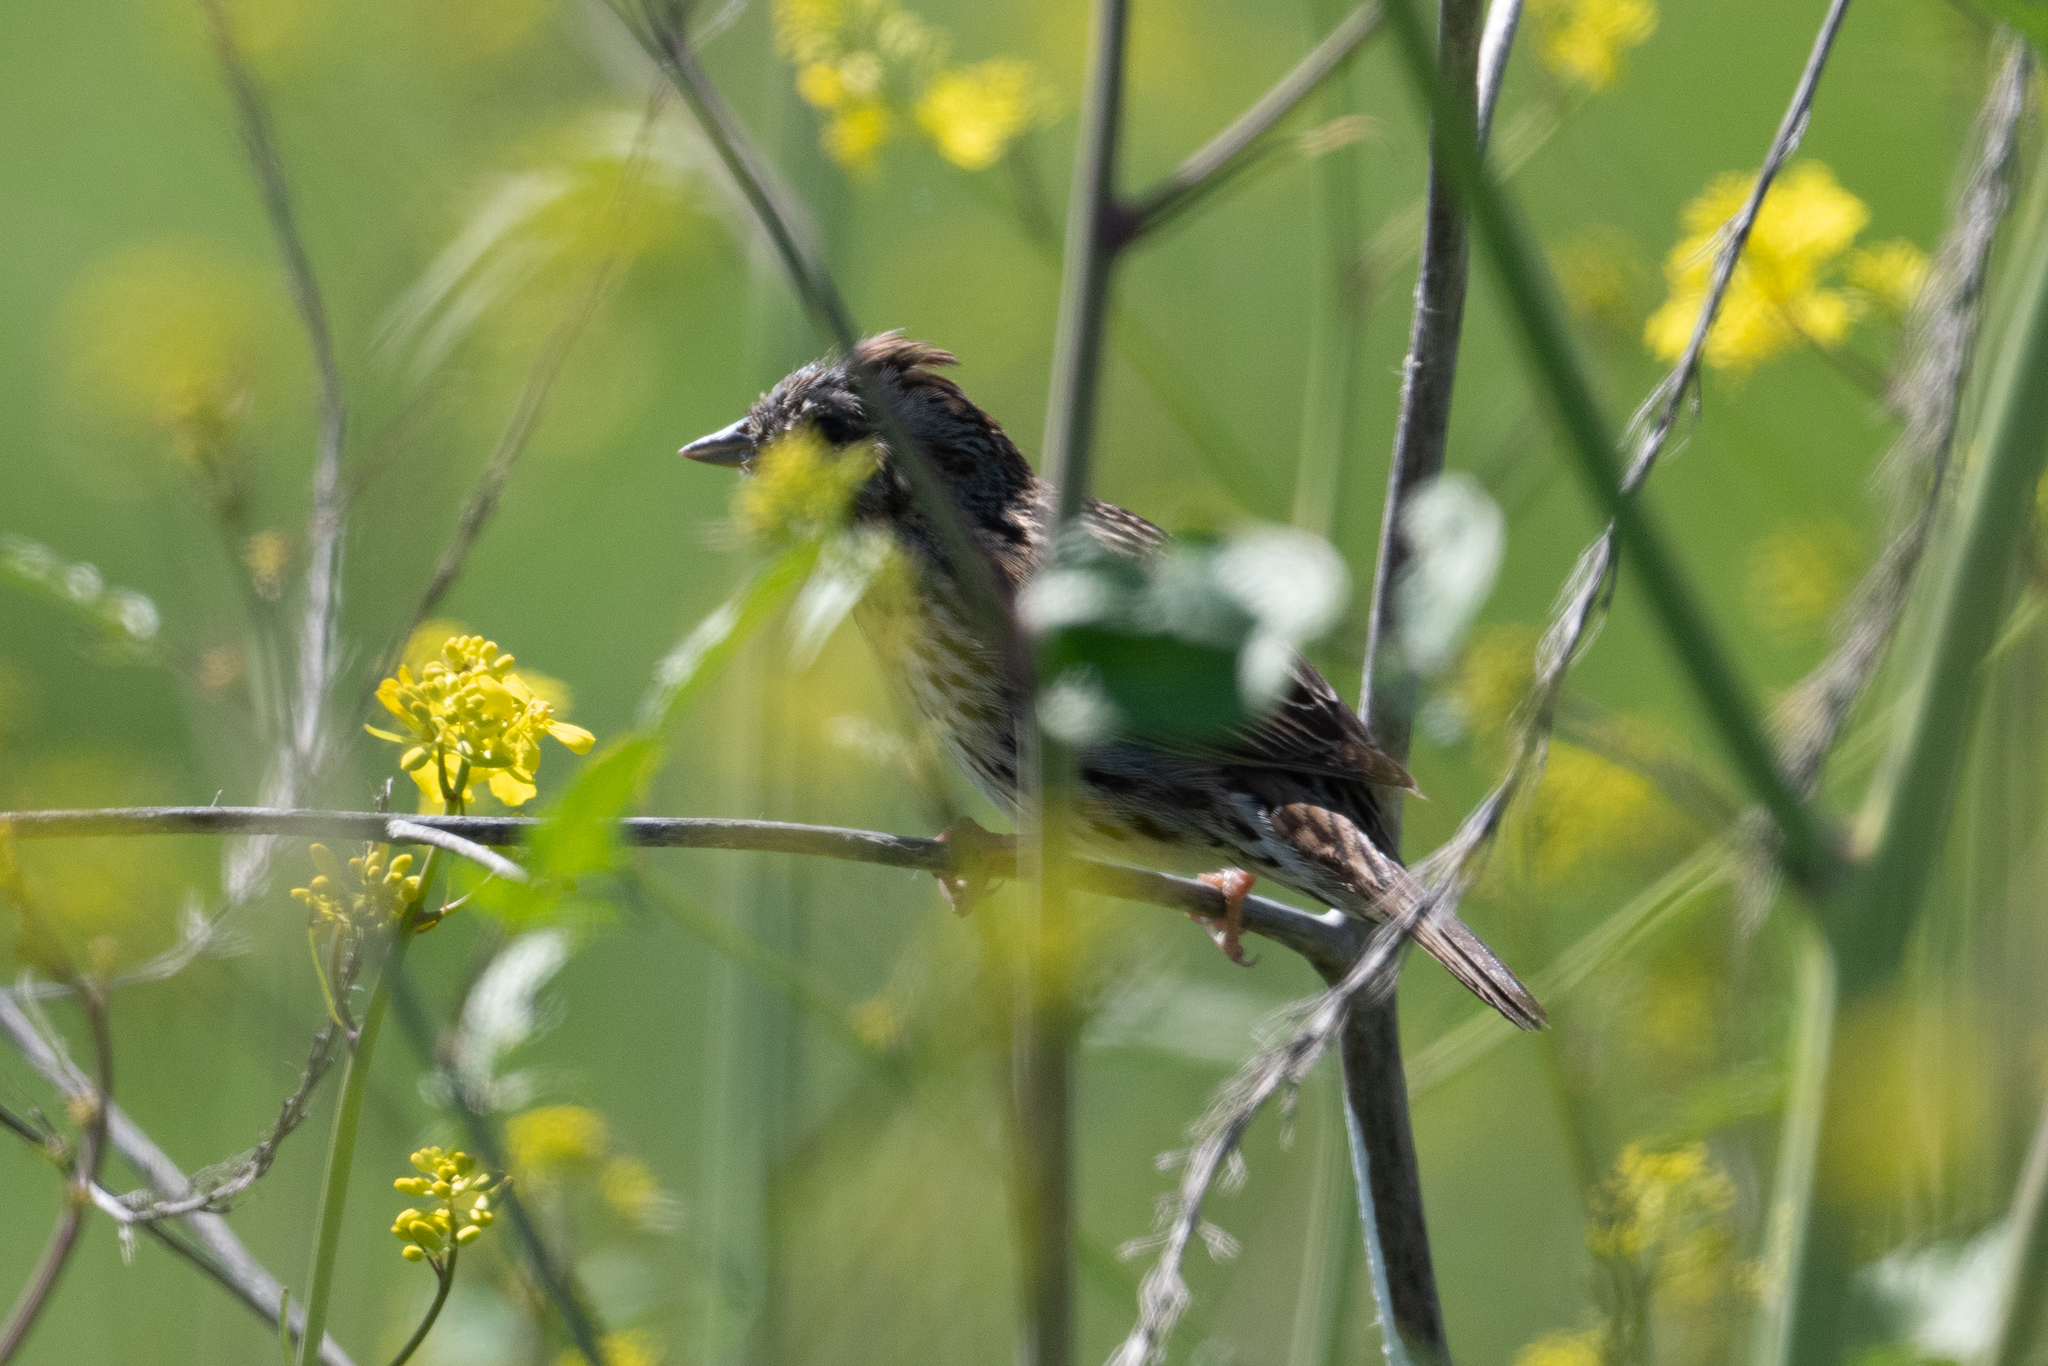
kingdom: Animalia
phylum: Chordata
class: Aves
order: Passeriformes
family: Passerellidae
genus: Melospiza
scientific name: Melospiza lincolnii
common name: Lincoln's sparrow
